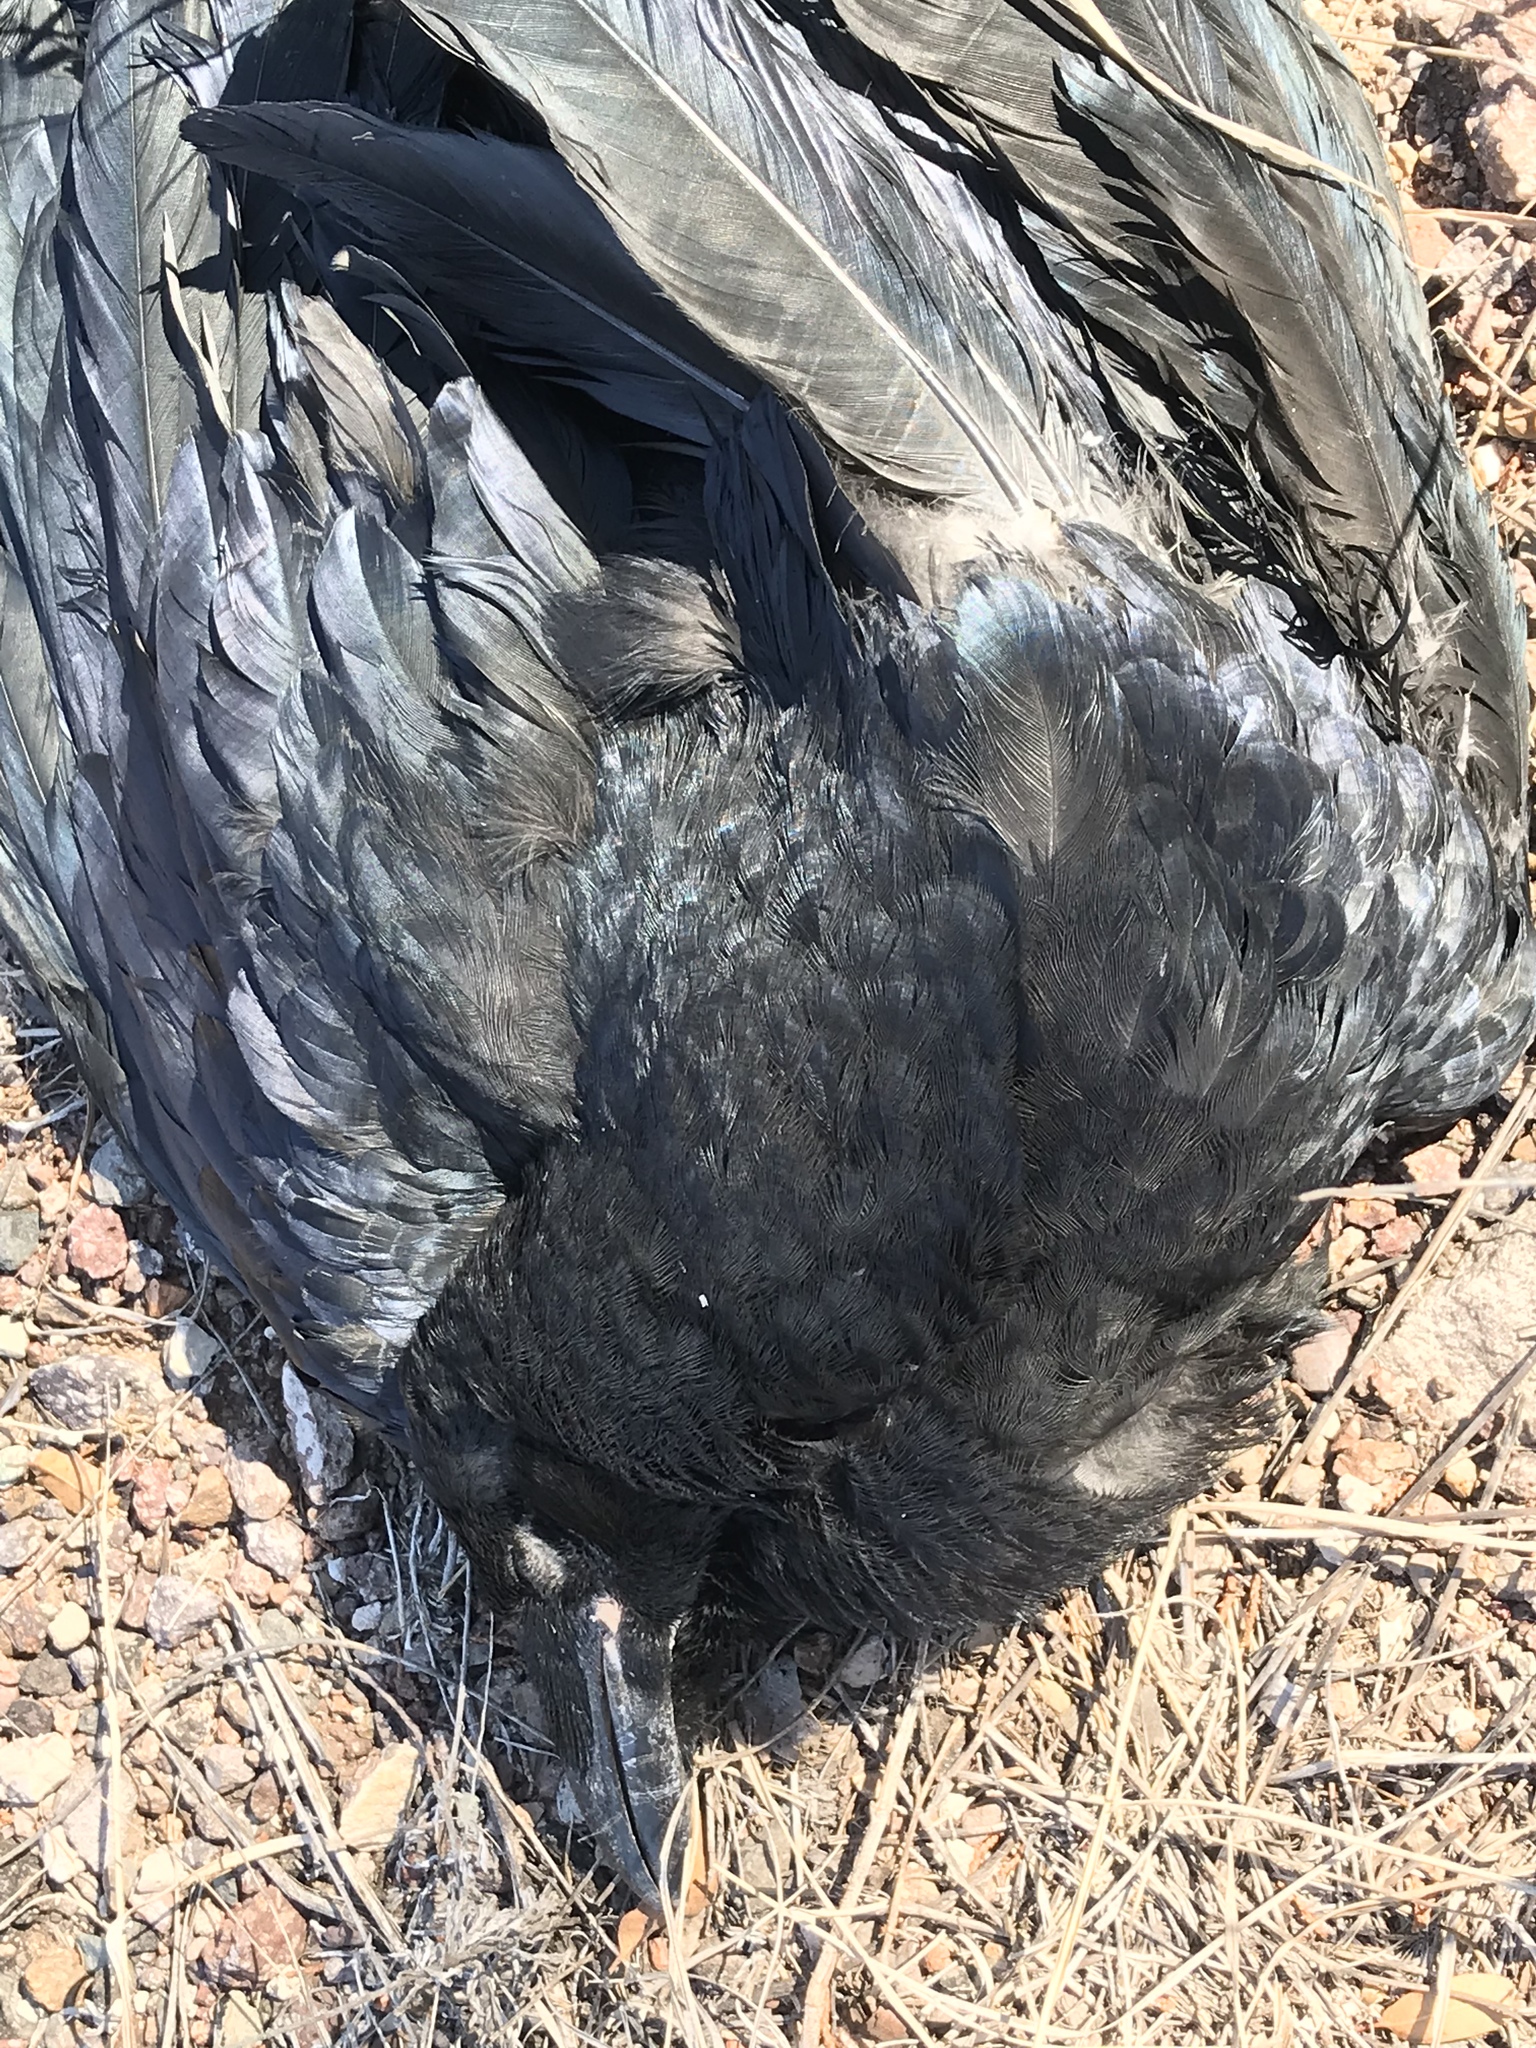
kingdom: Animalia
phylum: Chordata
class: Aves
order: Passeriformes
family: Corvidae
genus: Corvus
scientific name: Corvus corax
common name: Common raven
